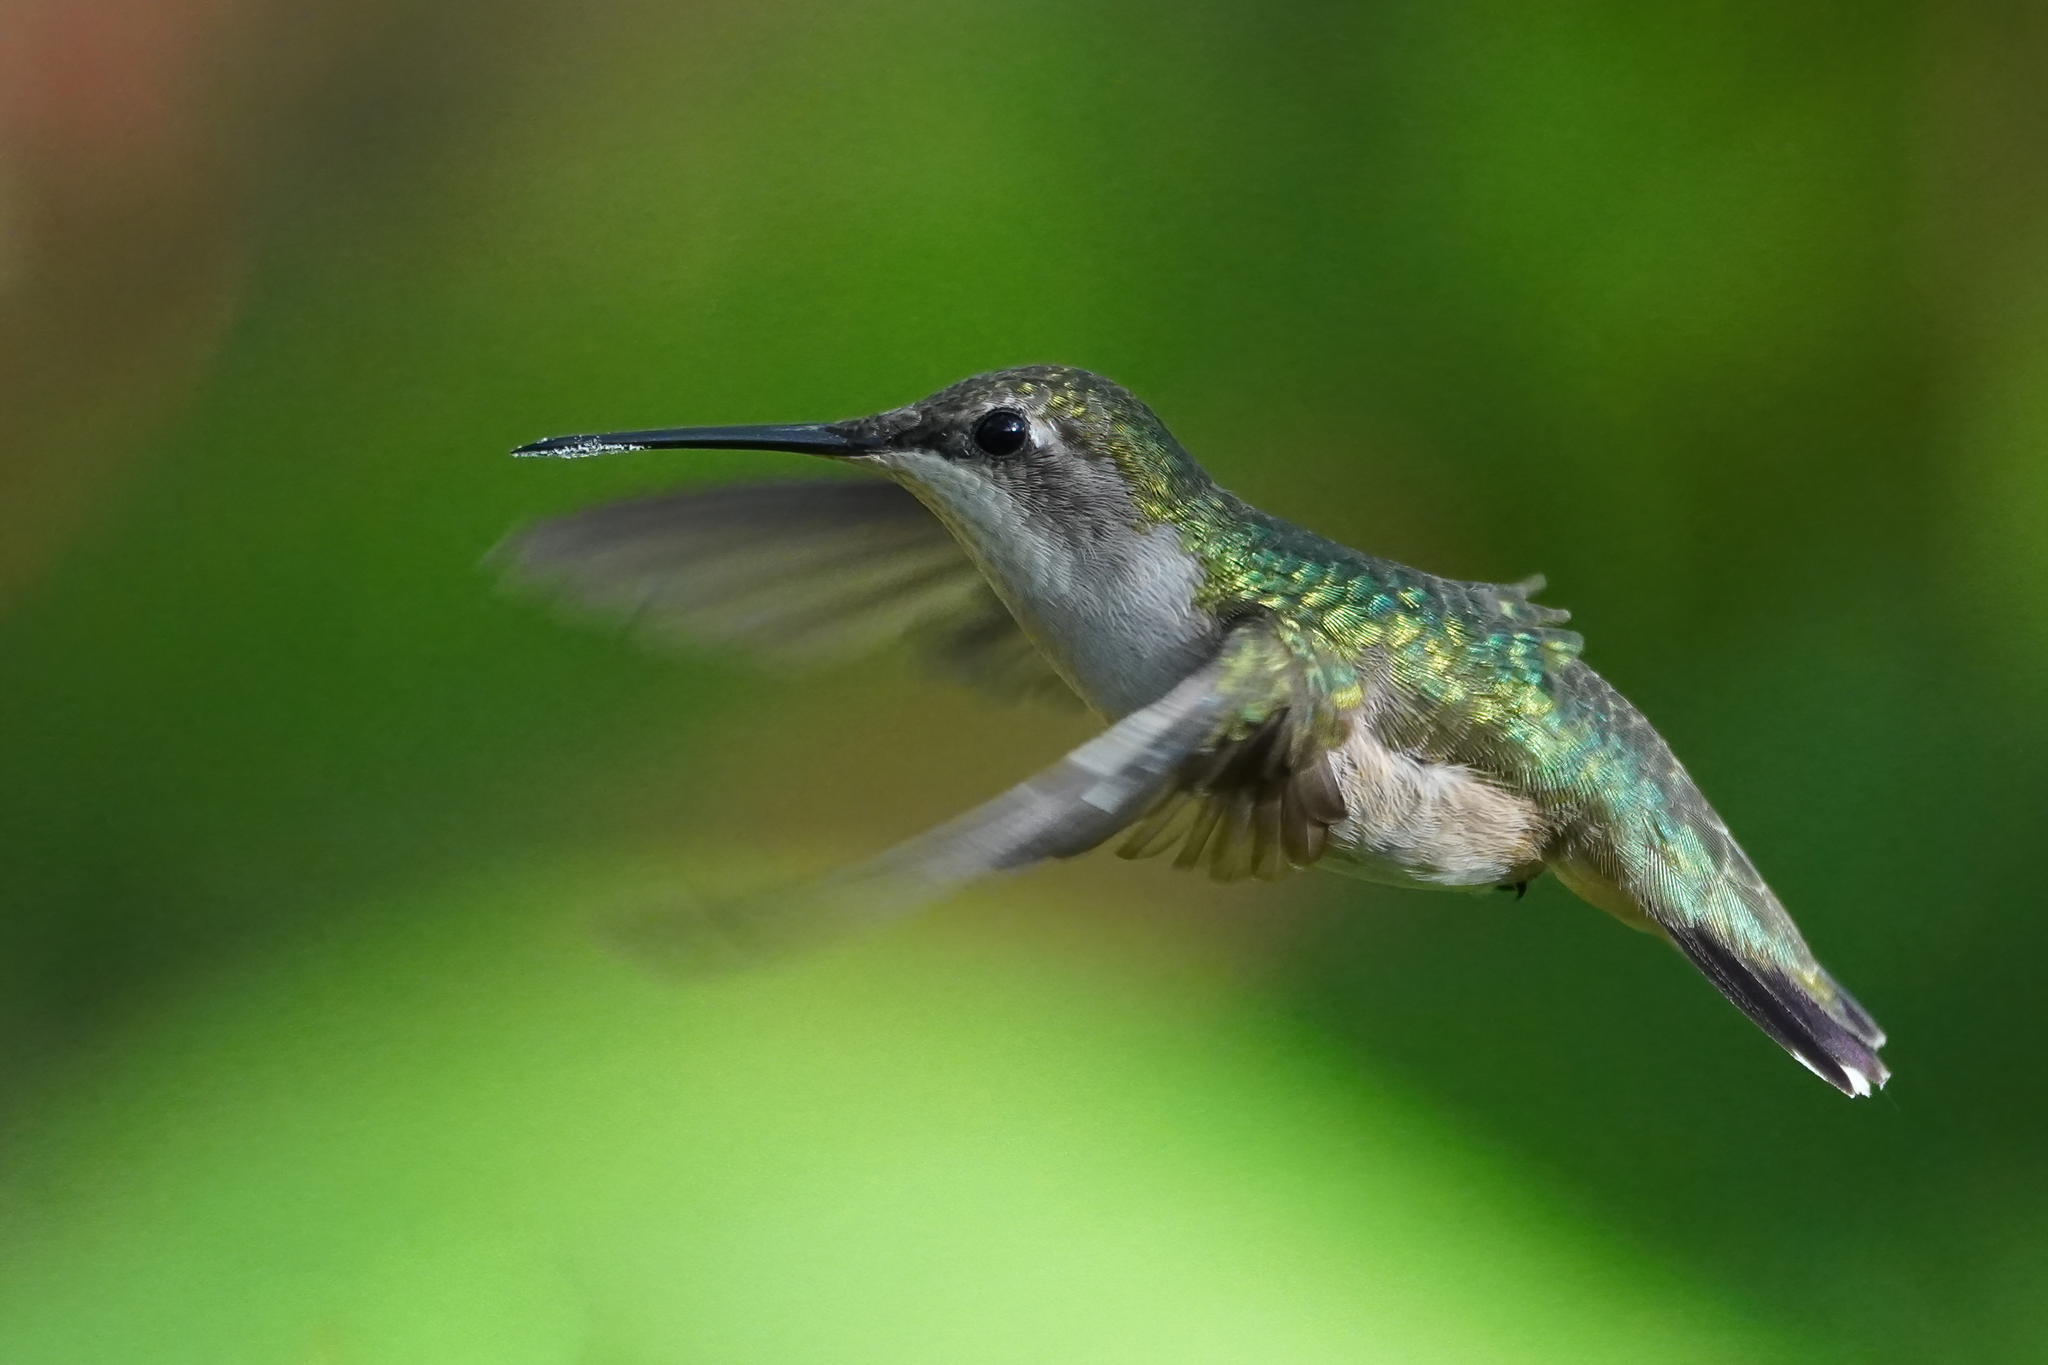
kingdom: Animalia
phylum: Chordata
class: Aves
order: Apodiformes
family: Trochilidae
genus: Archilochus
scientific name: Archilochus colubris
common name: Ruby-throated hummingbird
